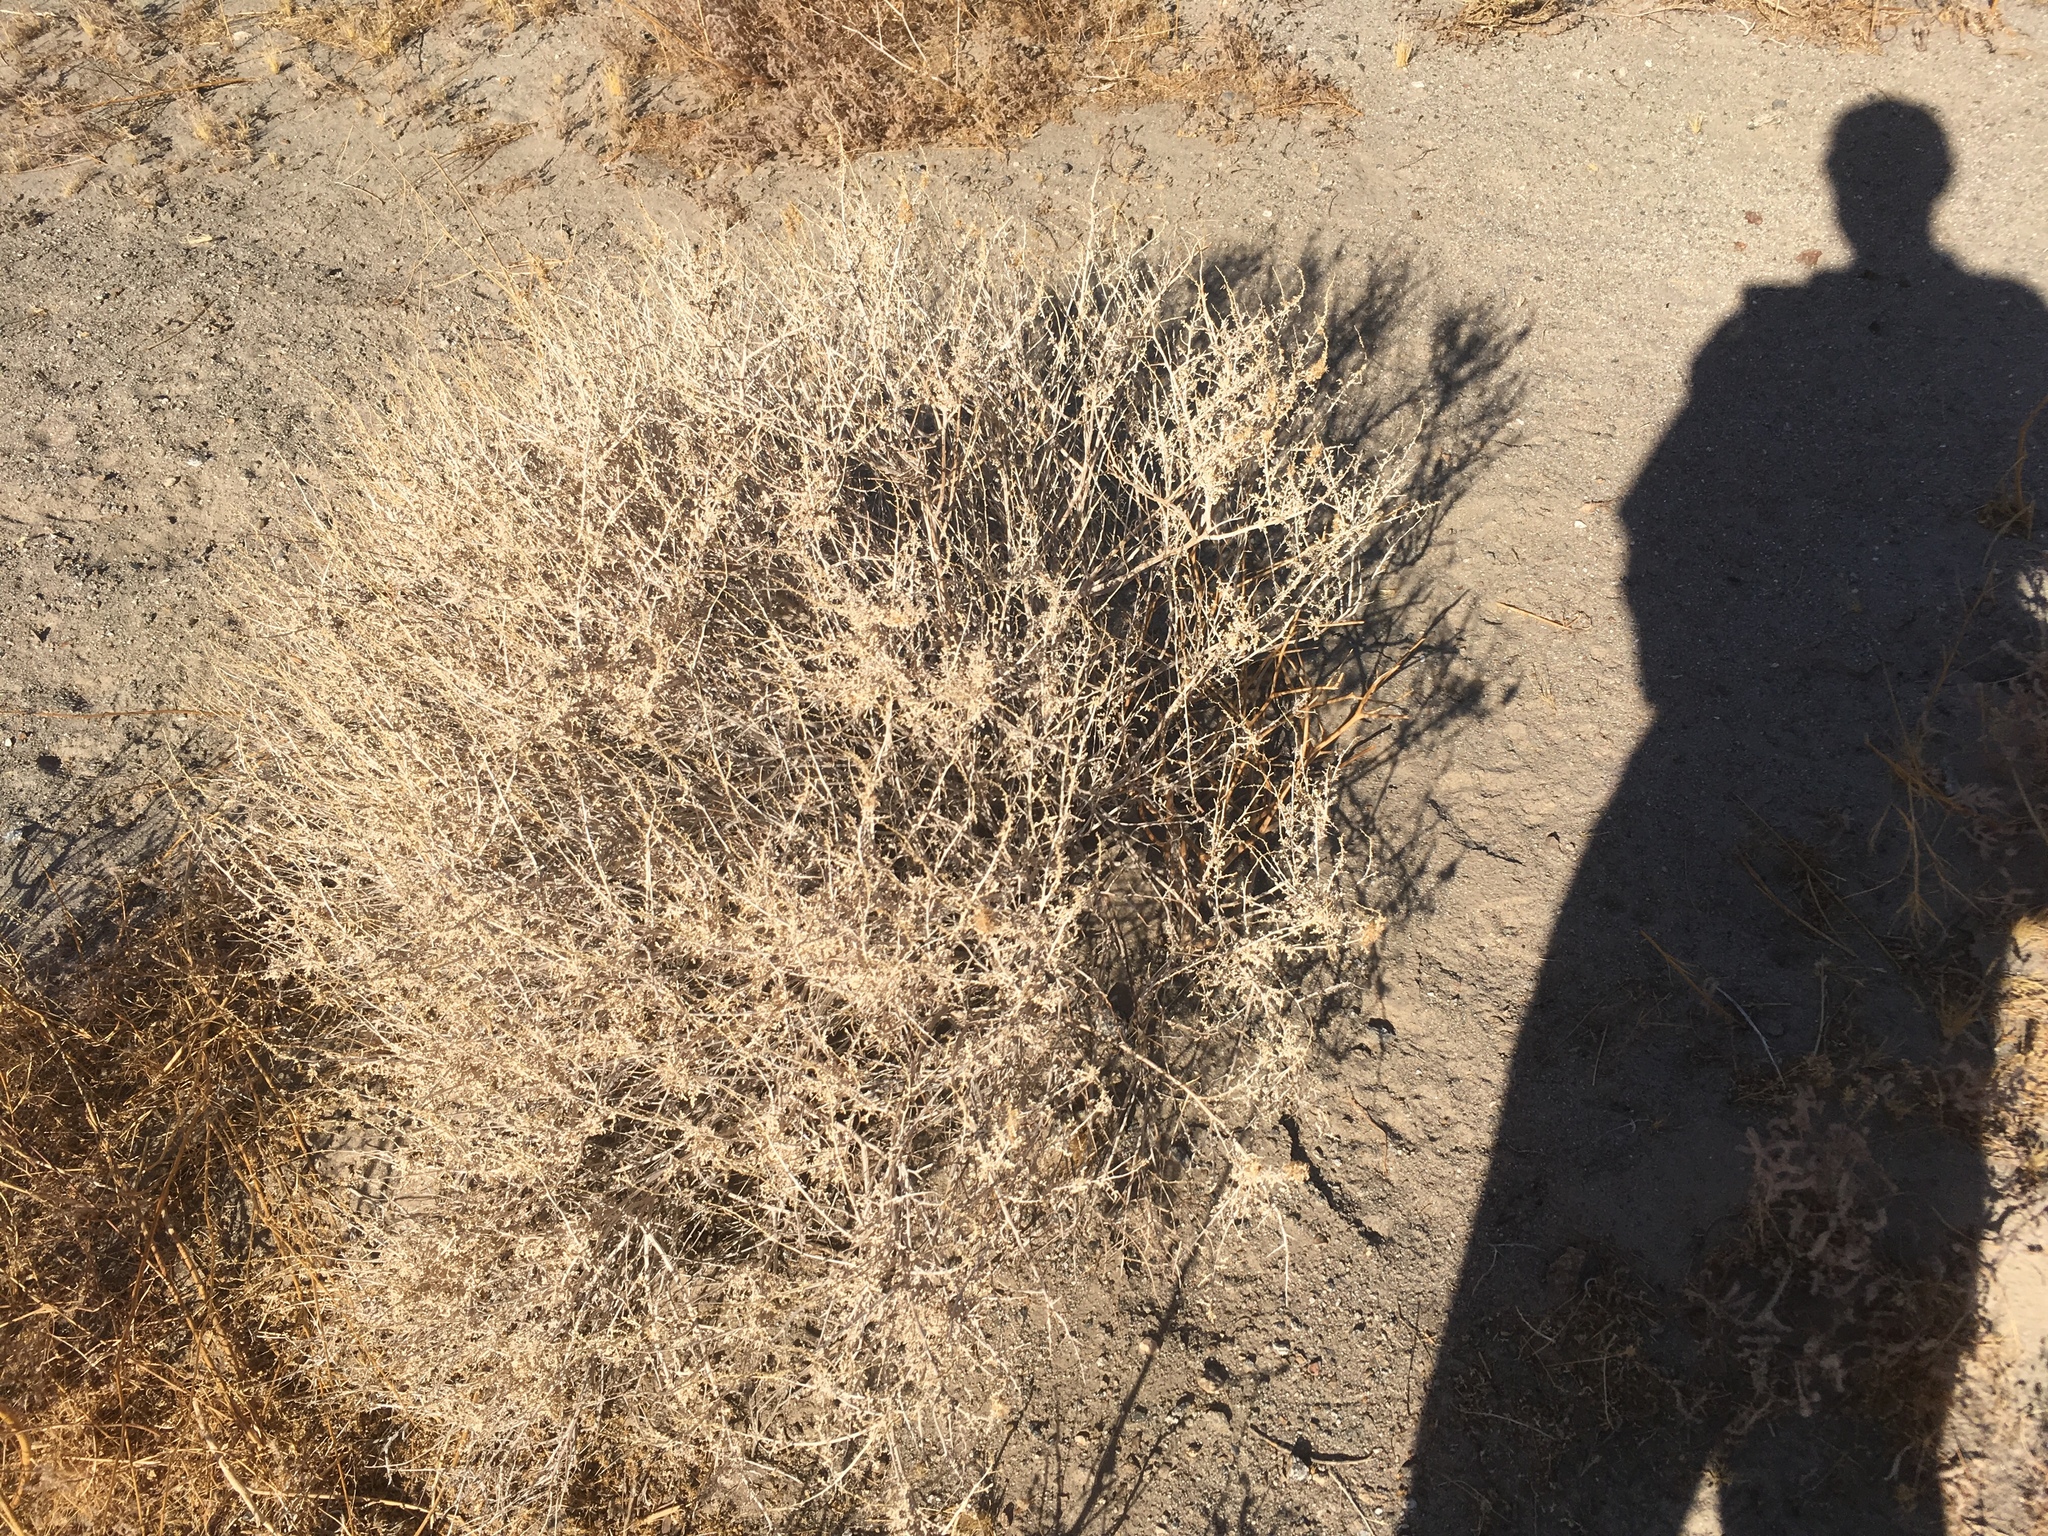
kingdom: Plantae
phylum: Tracheophyta
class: Magnoliopsida
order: Asterales
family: Asteraceae
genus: Ambrosia
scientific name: Ambrosia dumosa
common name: Bur-sage
